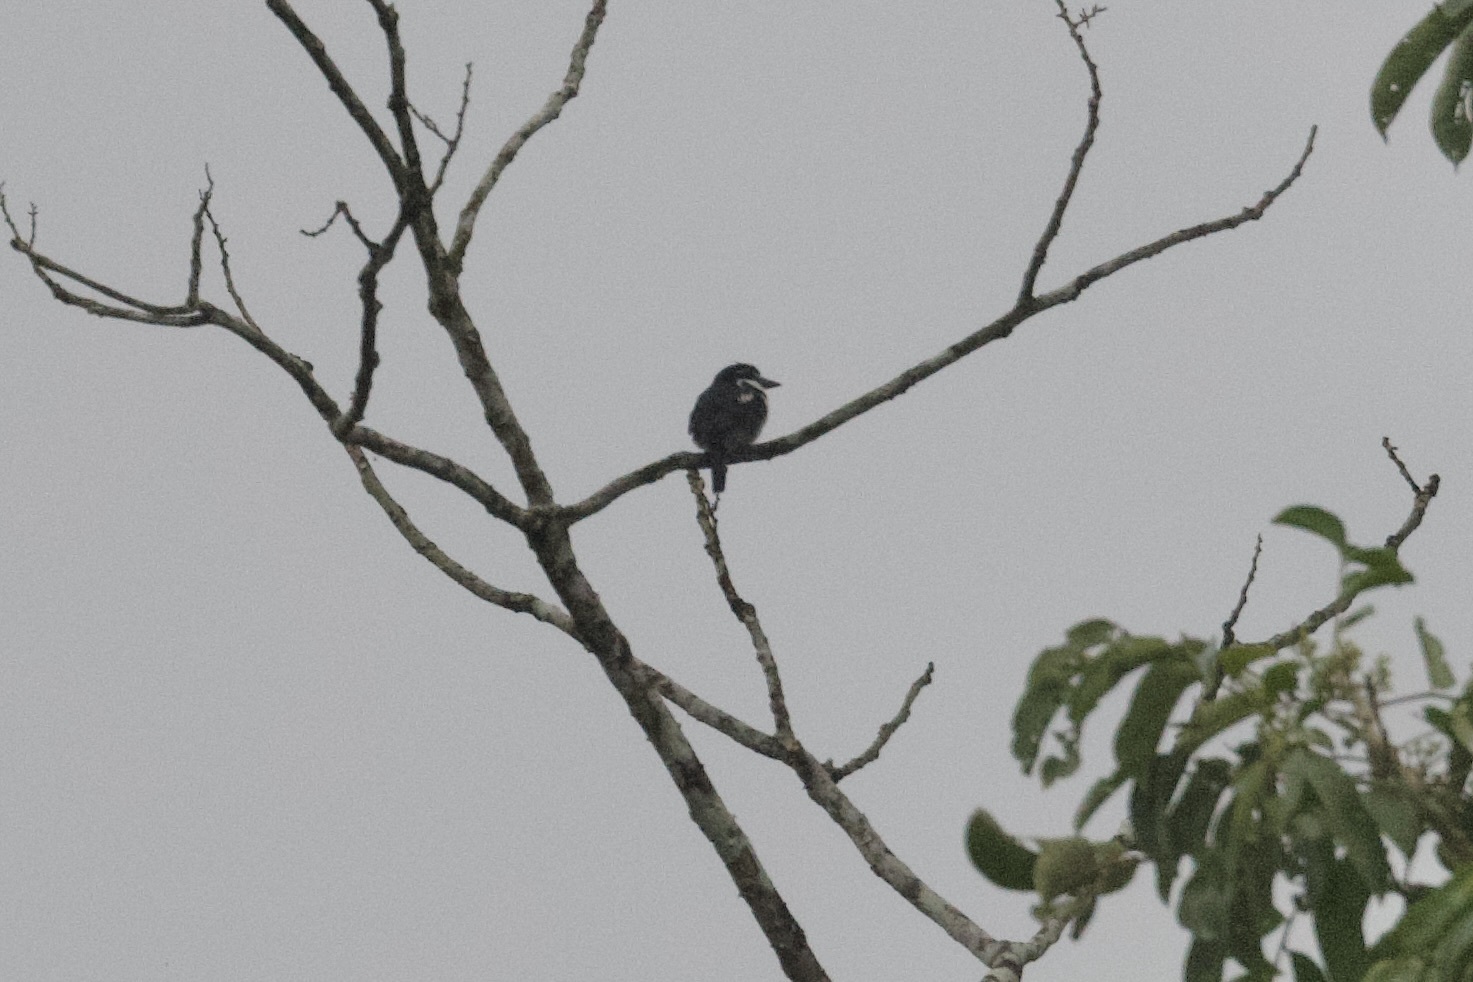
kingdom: Animalia
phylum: Chordata
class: Aves
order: Piciformes
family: Bucconidae
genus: Notharchus
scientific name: Notharchus tectus
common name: Pied puffbird
